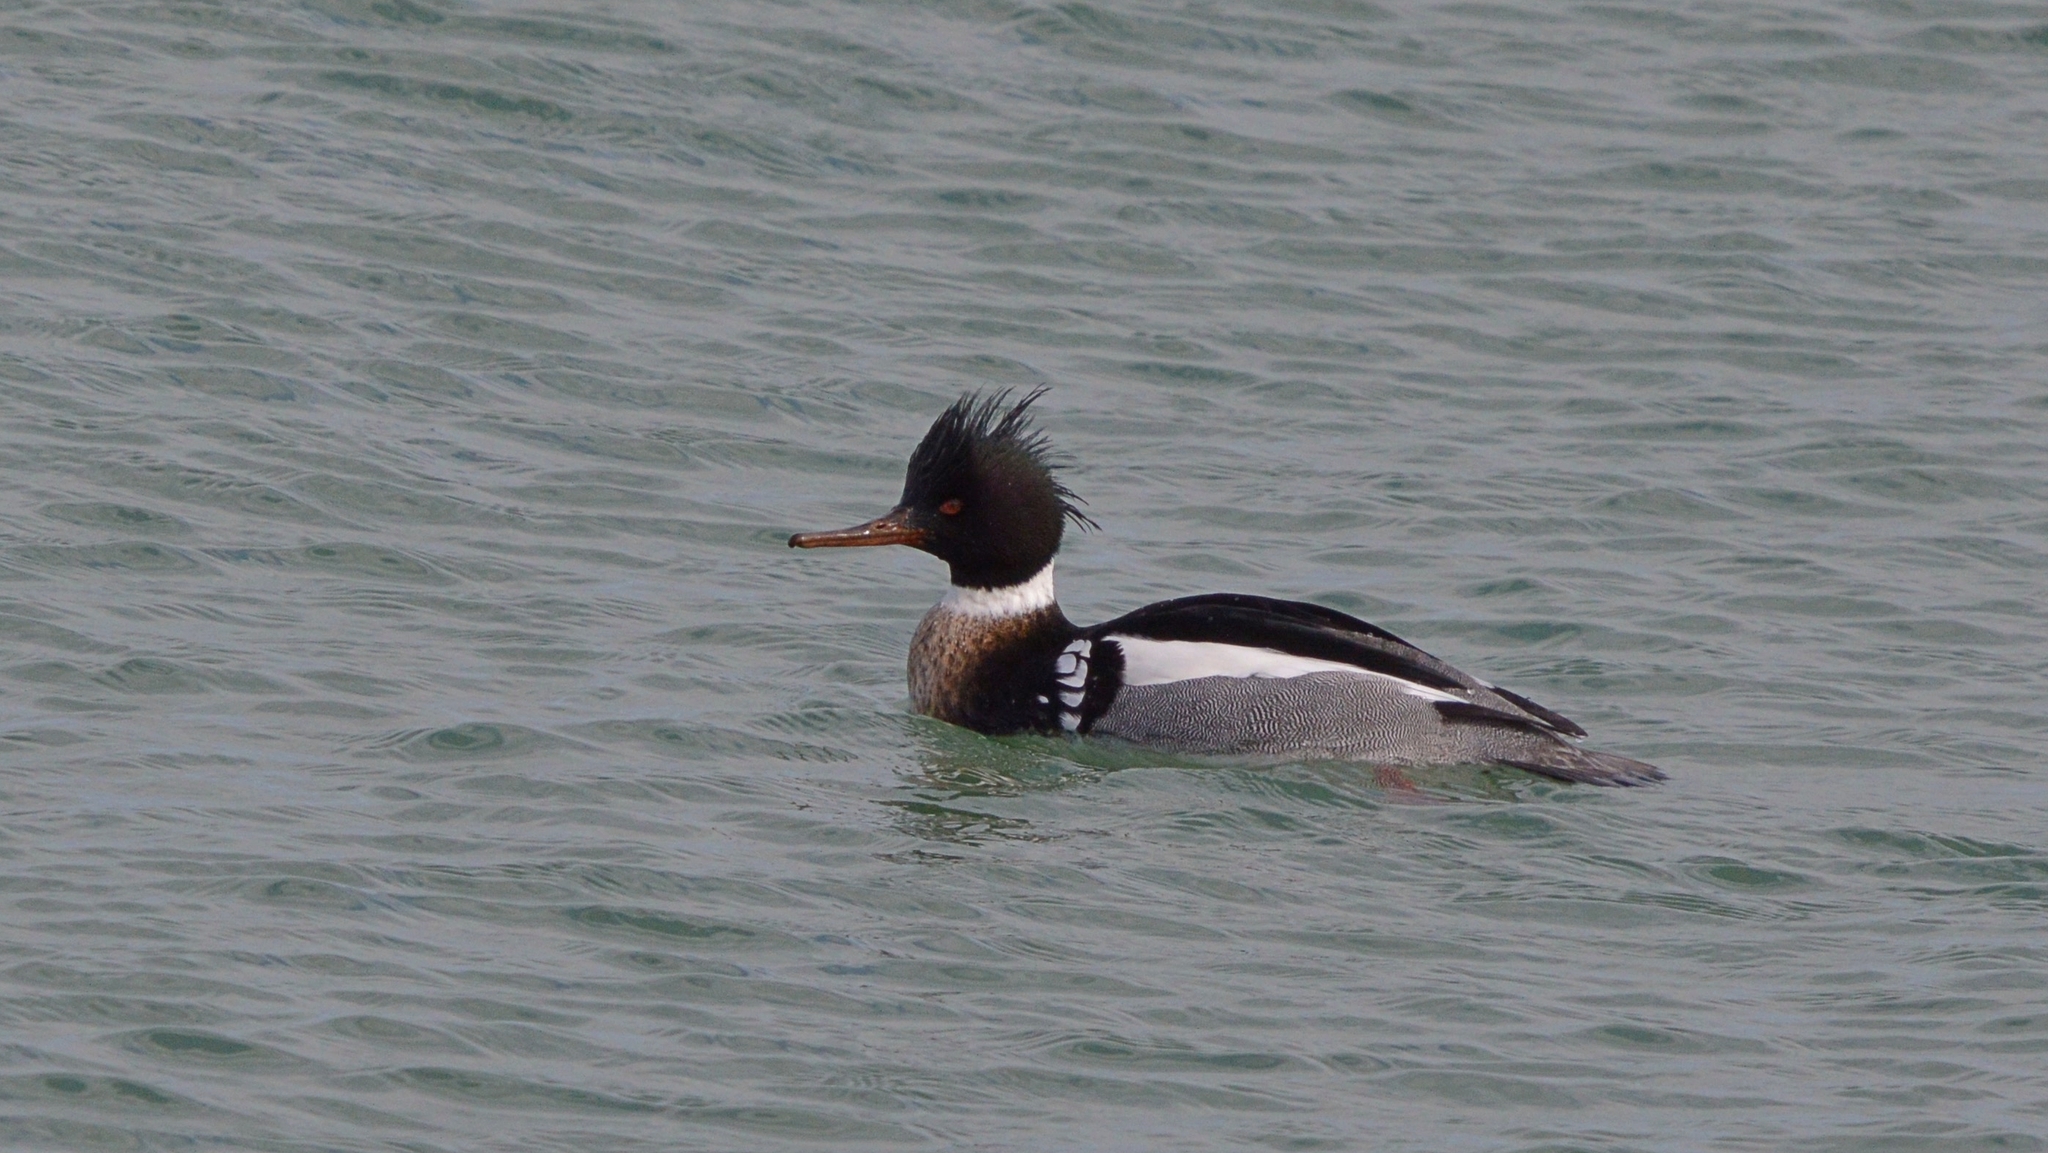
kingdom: Animalia
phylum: Chordata
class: Aves
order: Anseriformes
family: Anatidae
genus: Mergus
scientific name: Mergus serrator
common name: Red-breasted merganser
